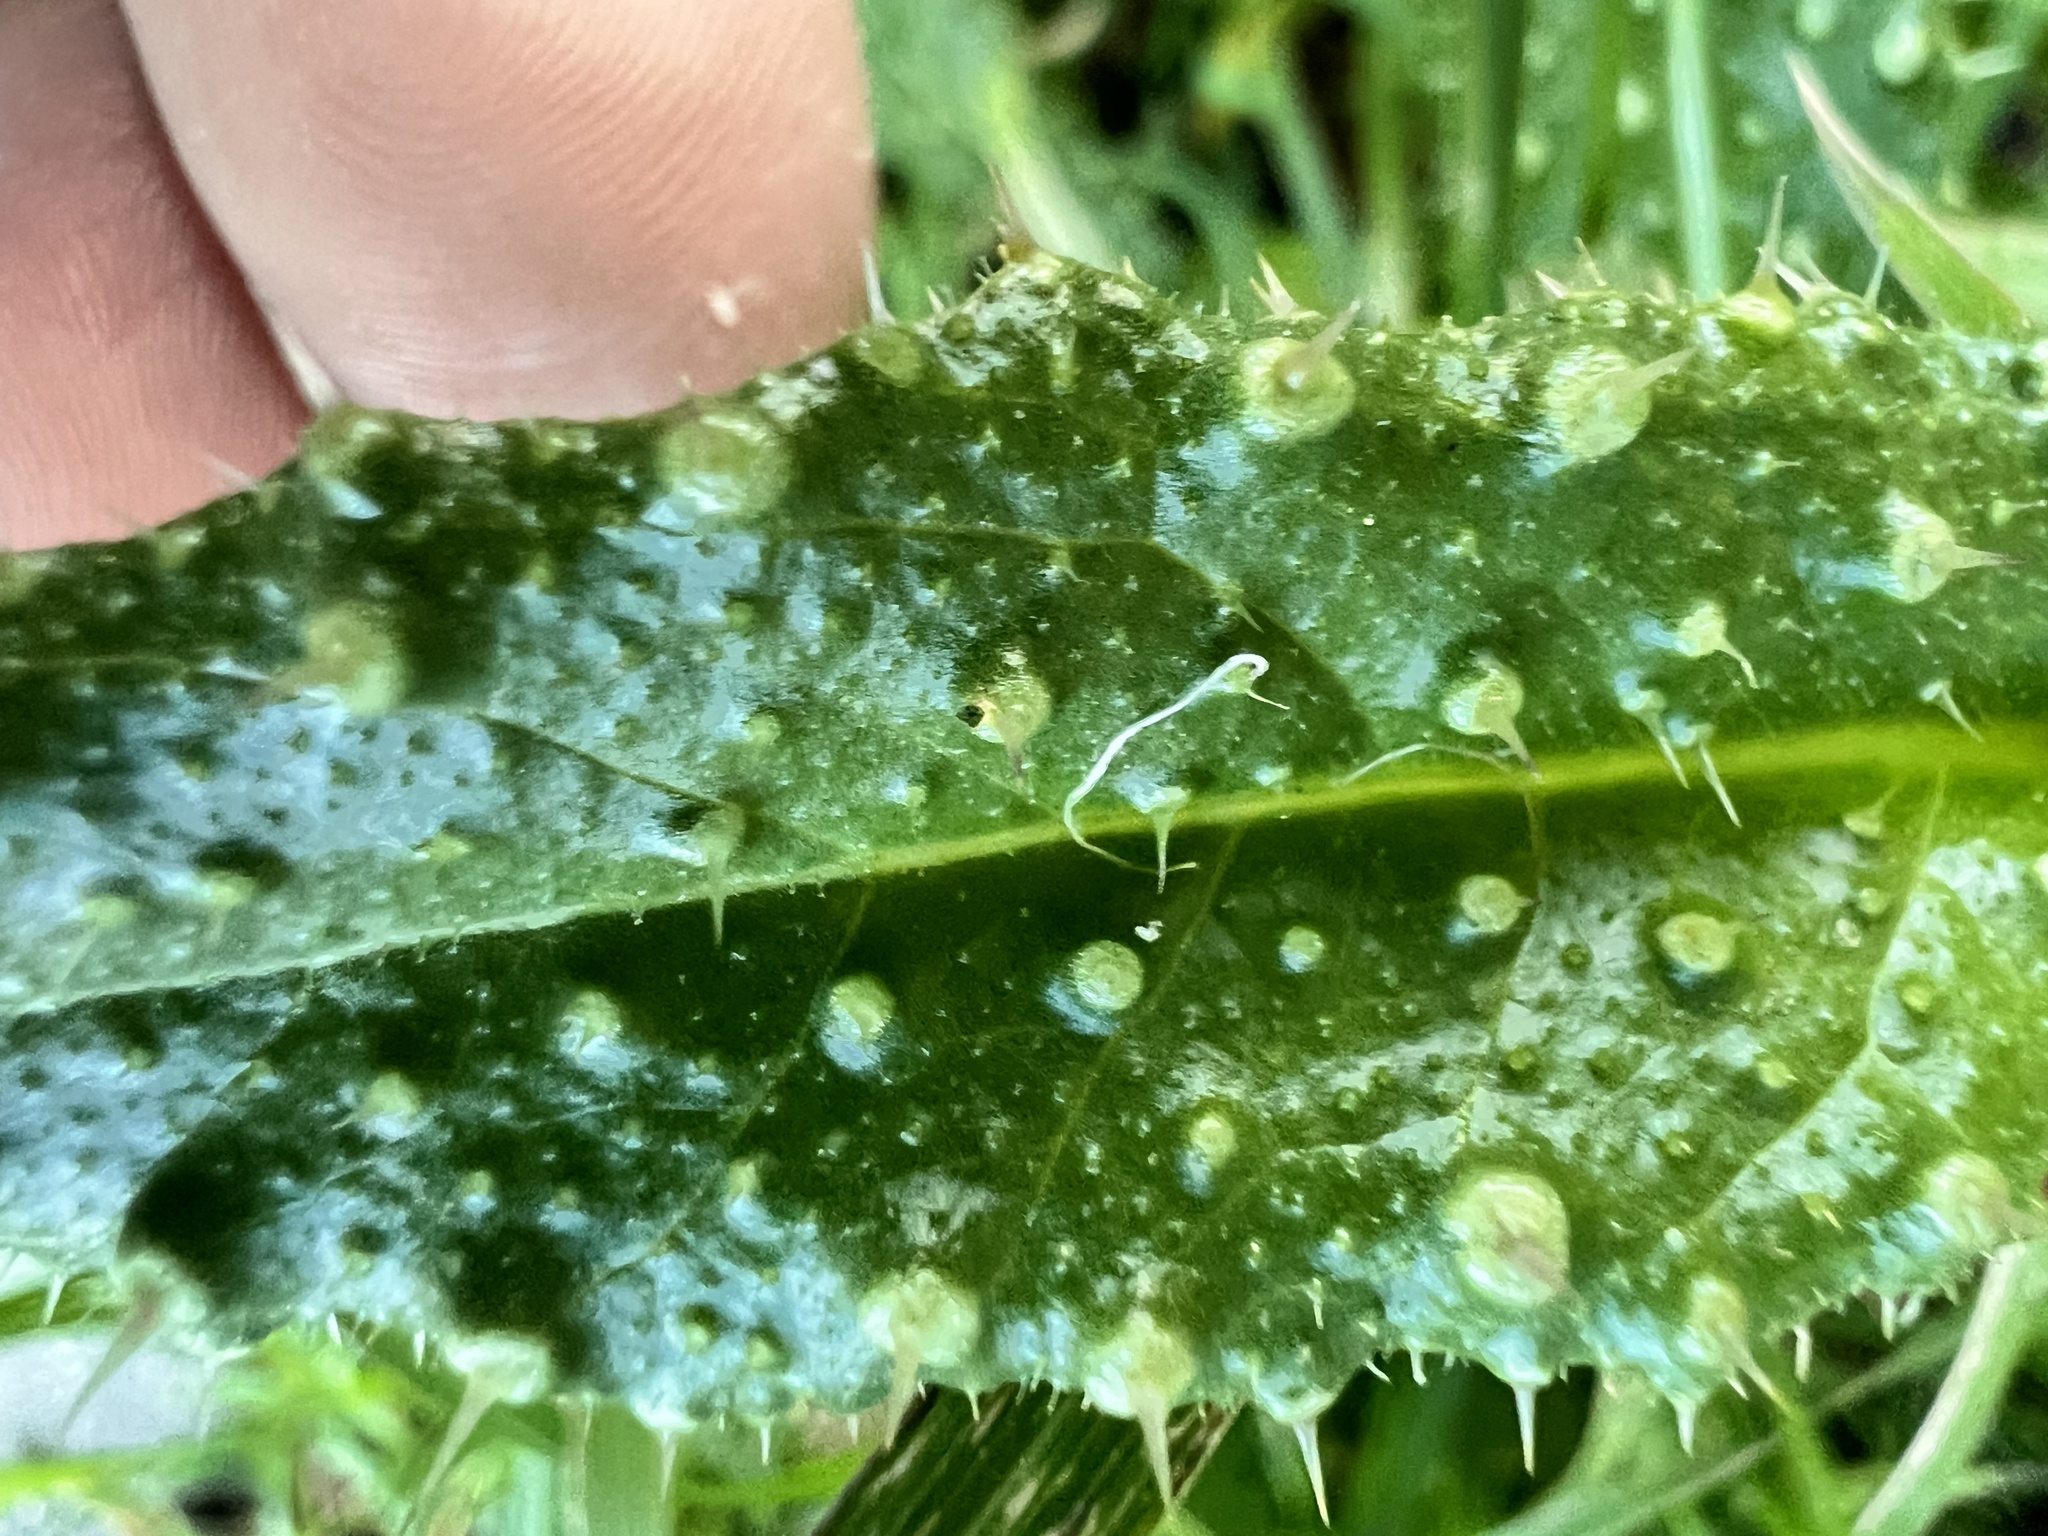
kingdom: Plantae
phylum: Tracheophyta
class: Magnoliopsida
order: Asterales
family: Asteraceae
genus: Helminthotheca
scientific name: Helminthotheca echioides
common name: Ox-tongue
